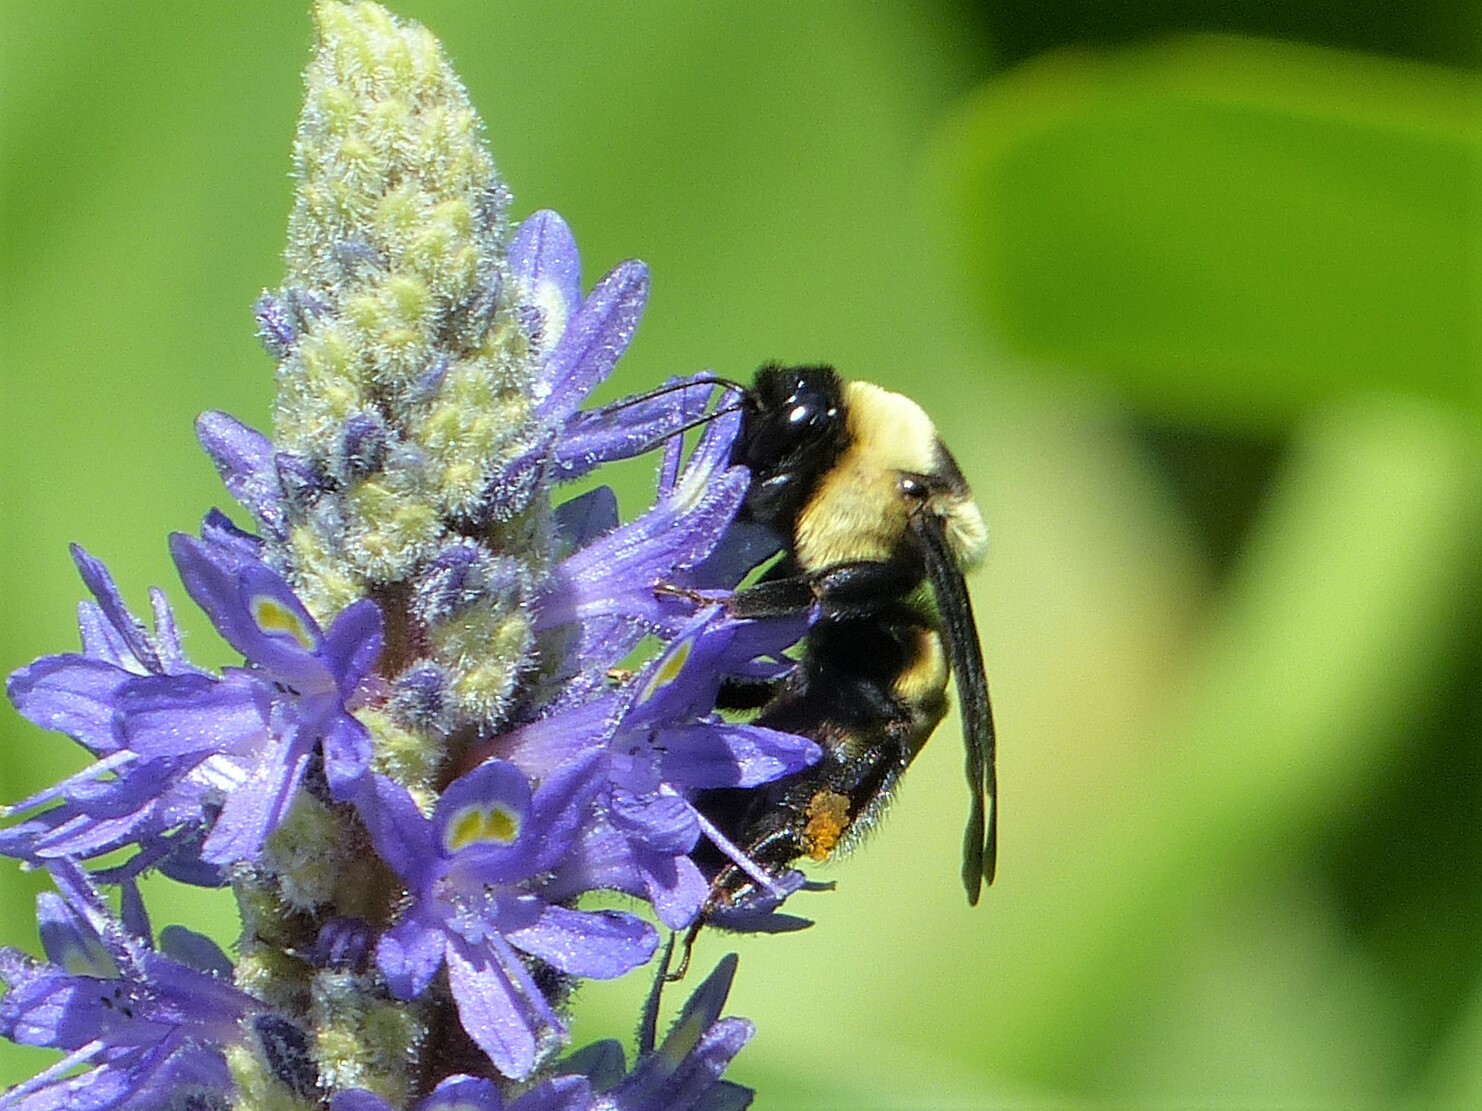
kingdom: Animalia
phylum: Arthropoda
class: Insecta
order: Hymenoptera
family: Apidae
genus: Bombus
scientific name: Bombus fraternus
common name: Southern plains bumble bee
